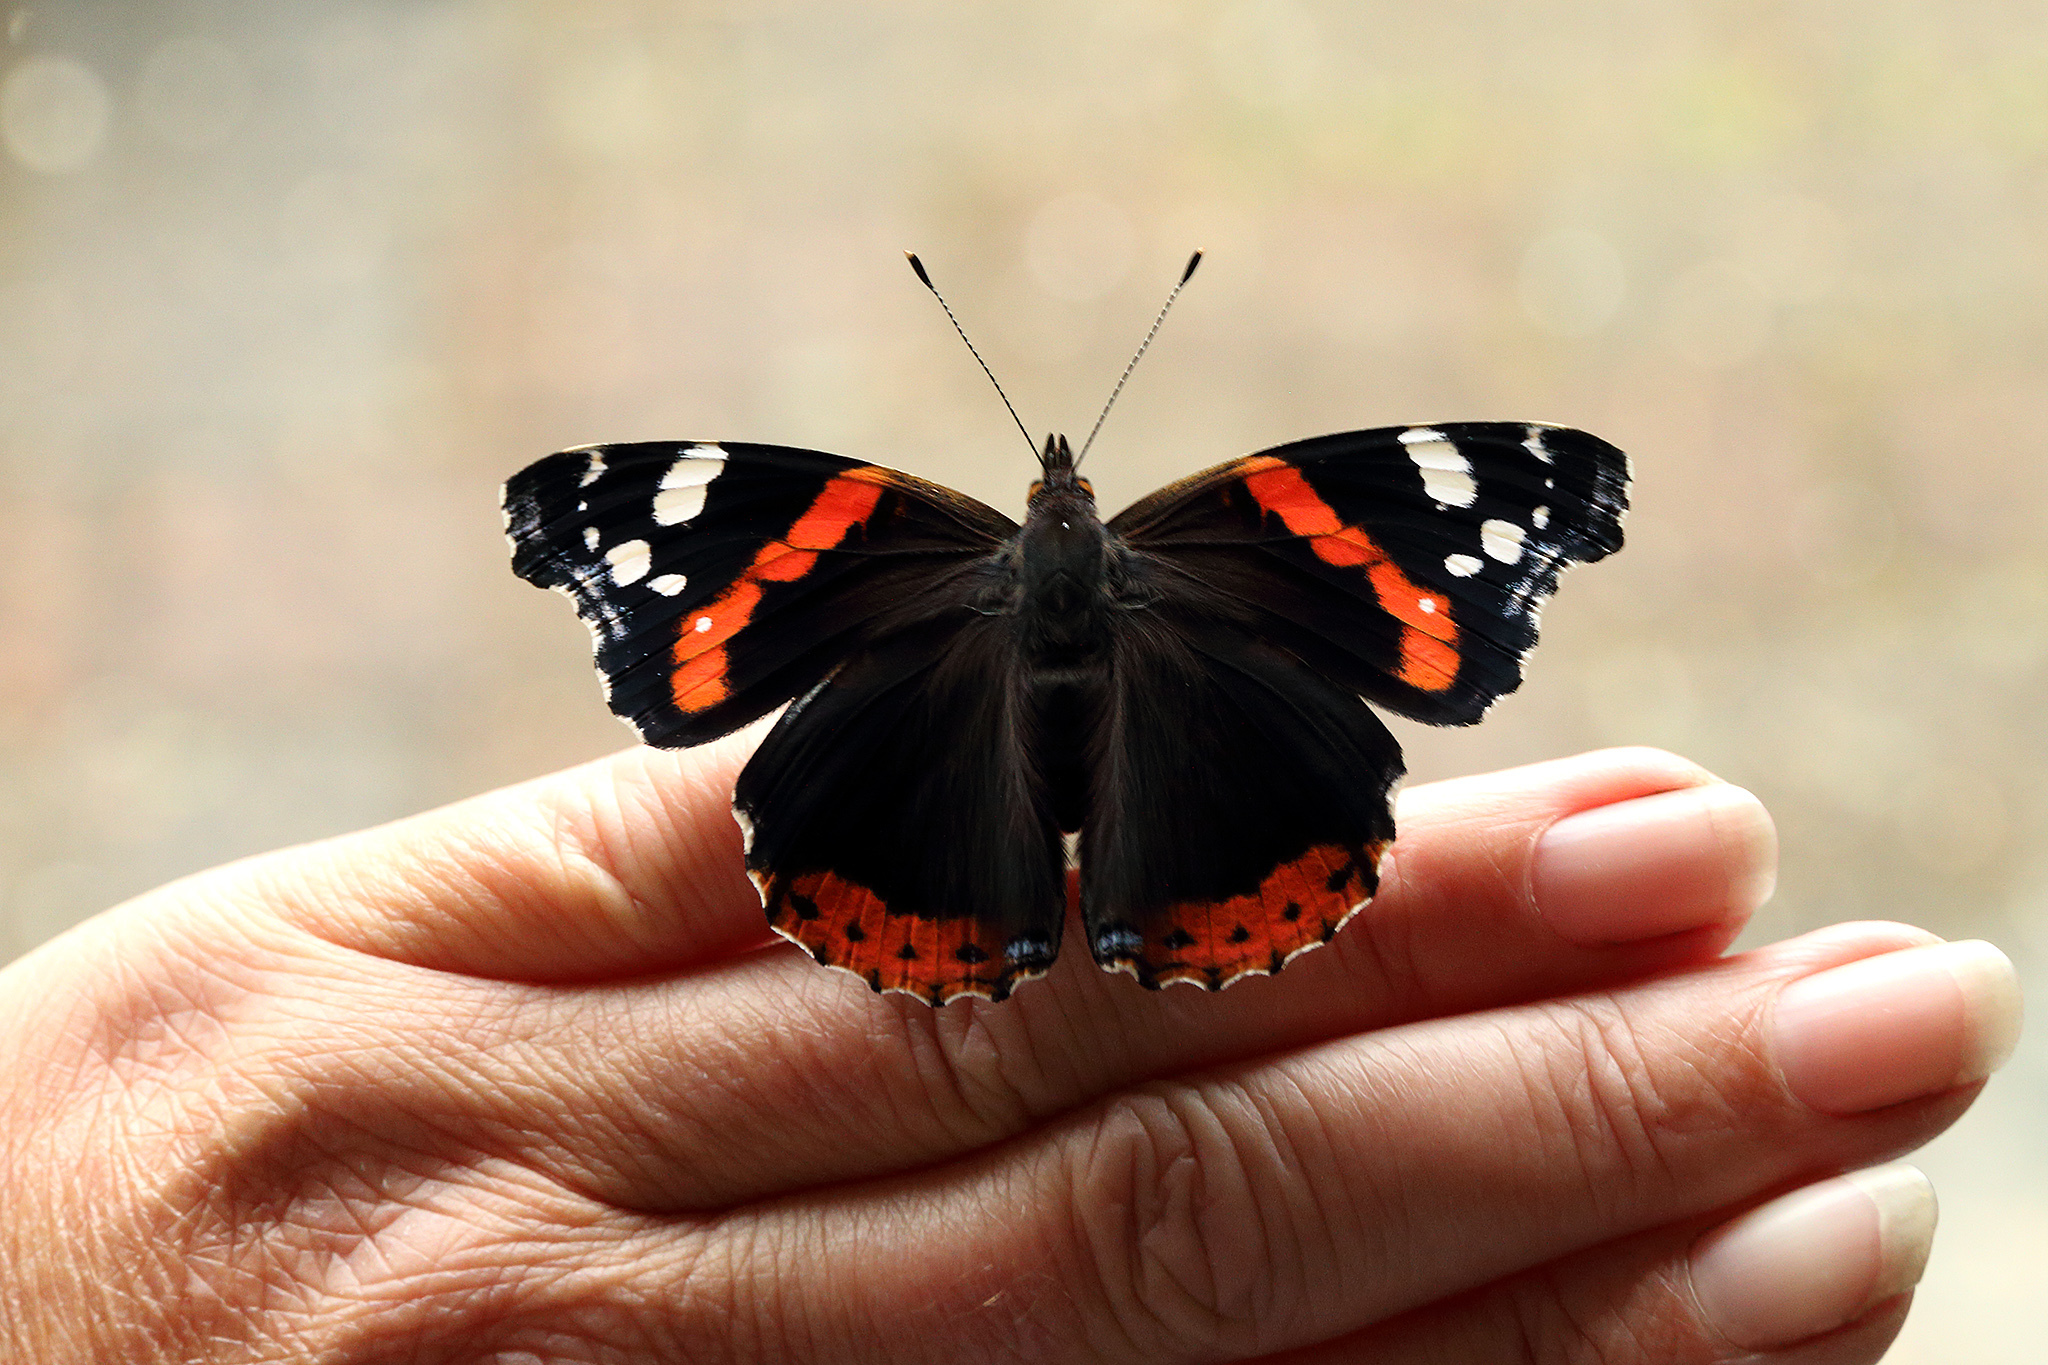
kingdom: Animalia
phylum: Arthropoda
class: Insecta
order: Lepidoptera
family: Nymphalidae
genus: Vanessa
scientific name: Vanessa atalanta
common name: Red admiral
